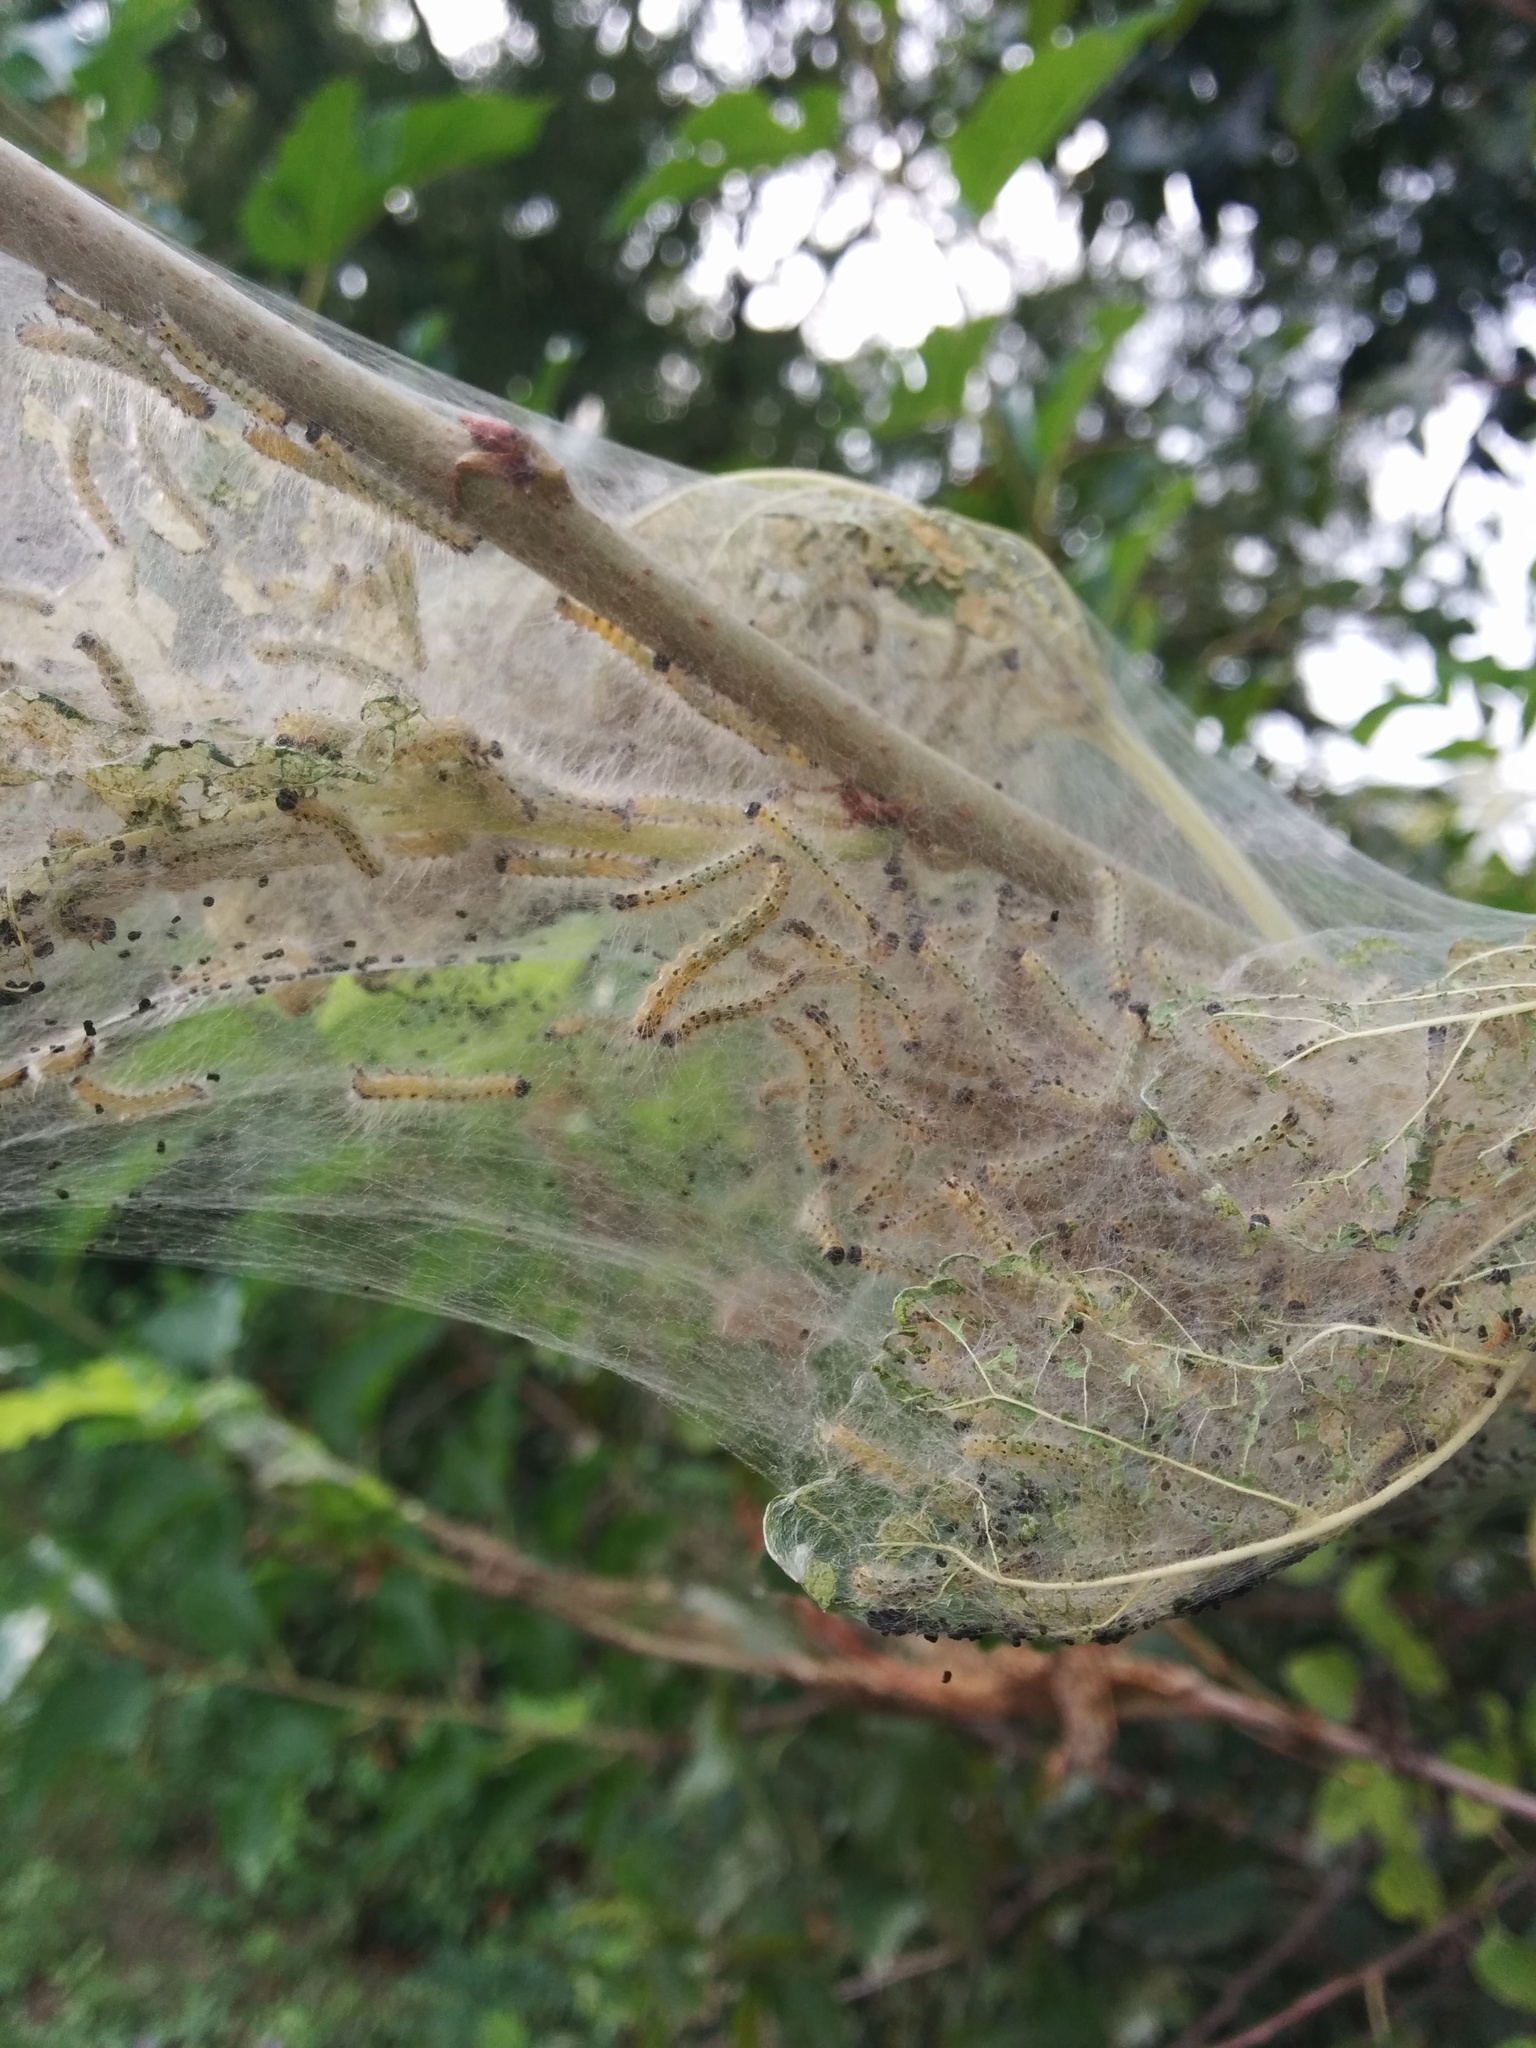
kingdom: Animalia
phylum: Arthropoda
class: Insecta
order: Lepidoptera
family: Erebidae
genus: Hyphantria
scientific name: Hyphantria cunea
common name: American white moth
